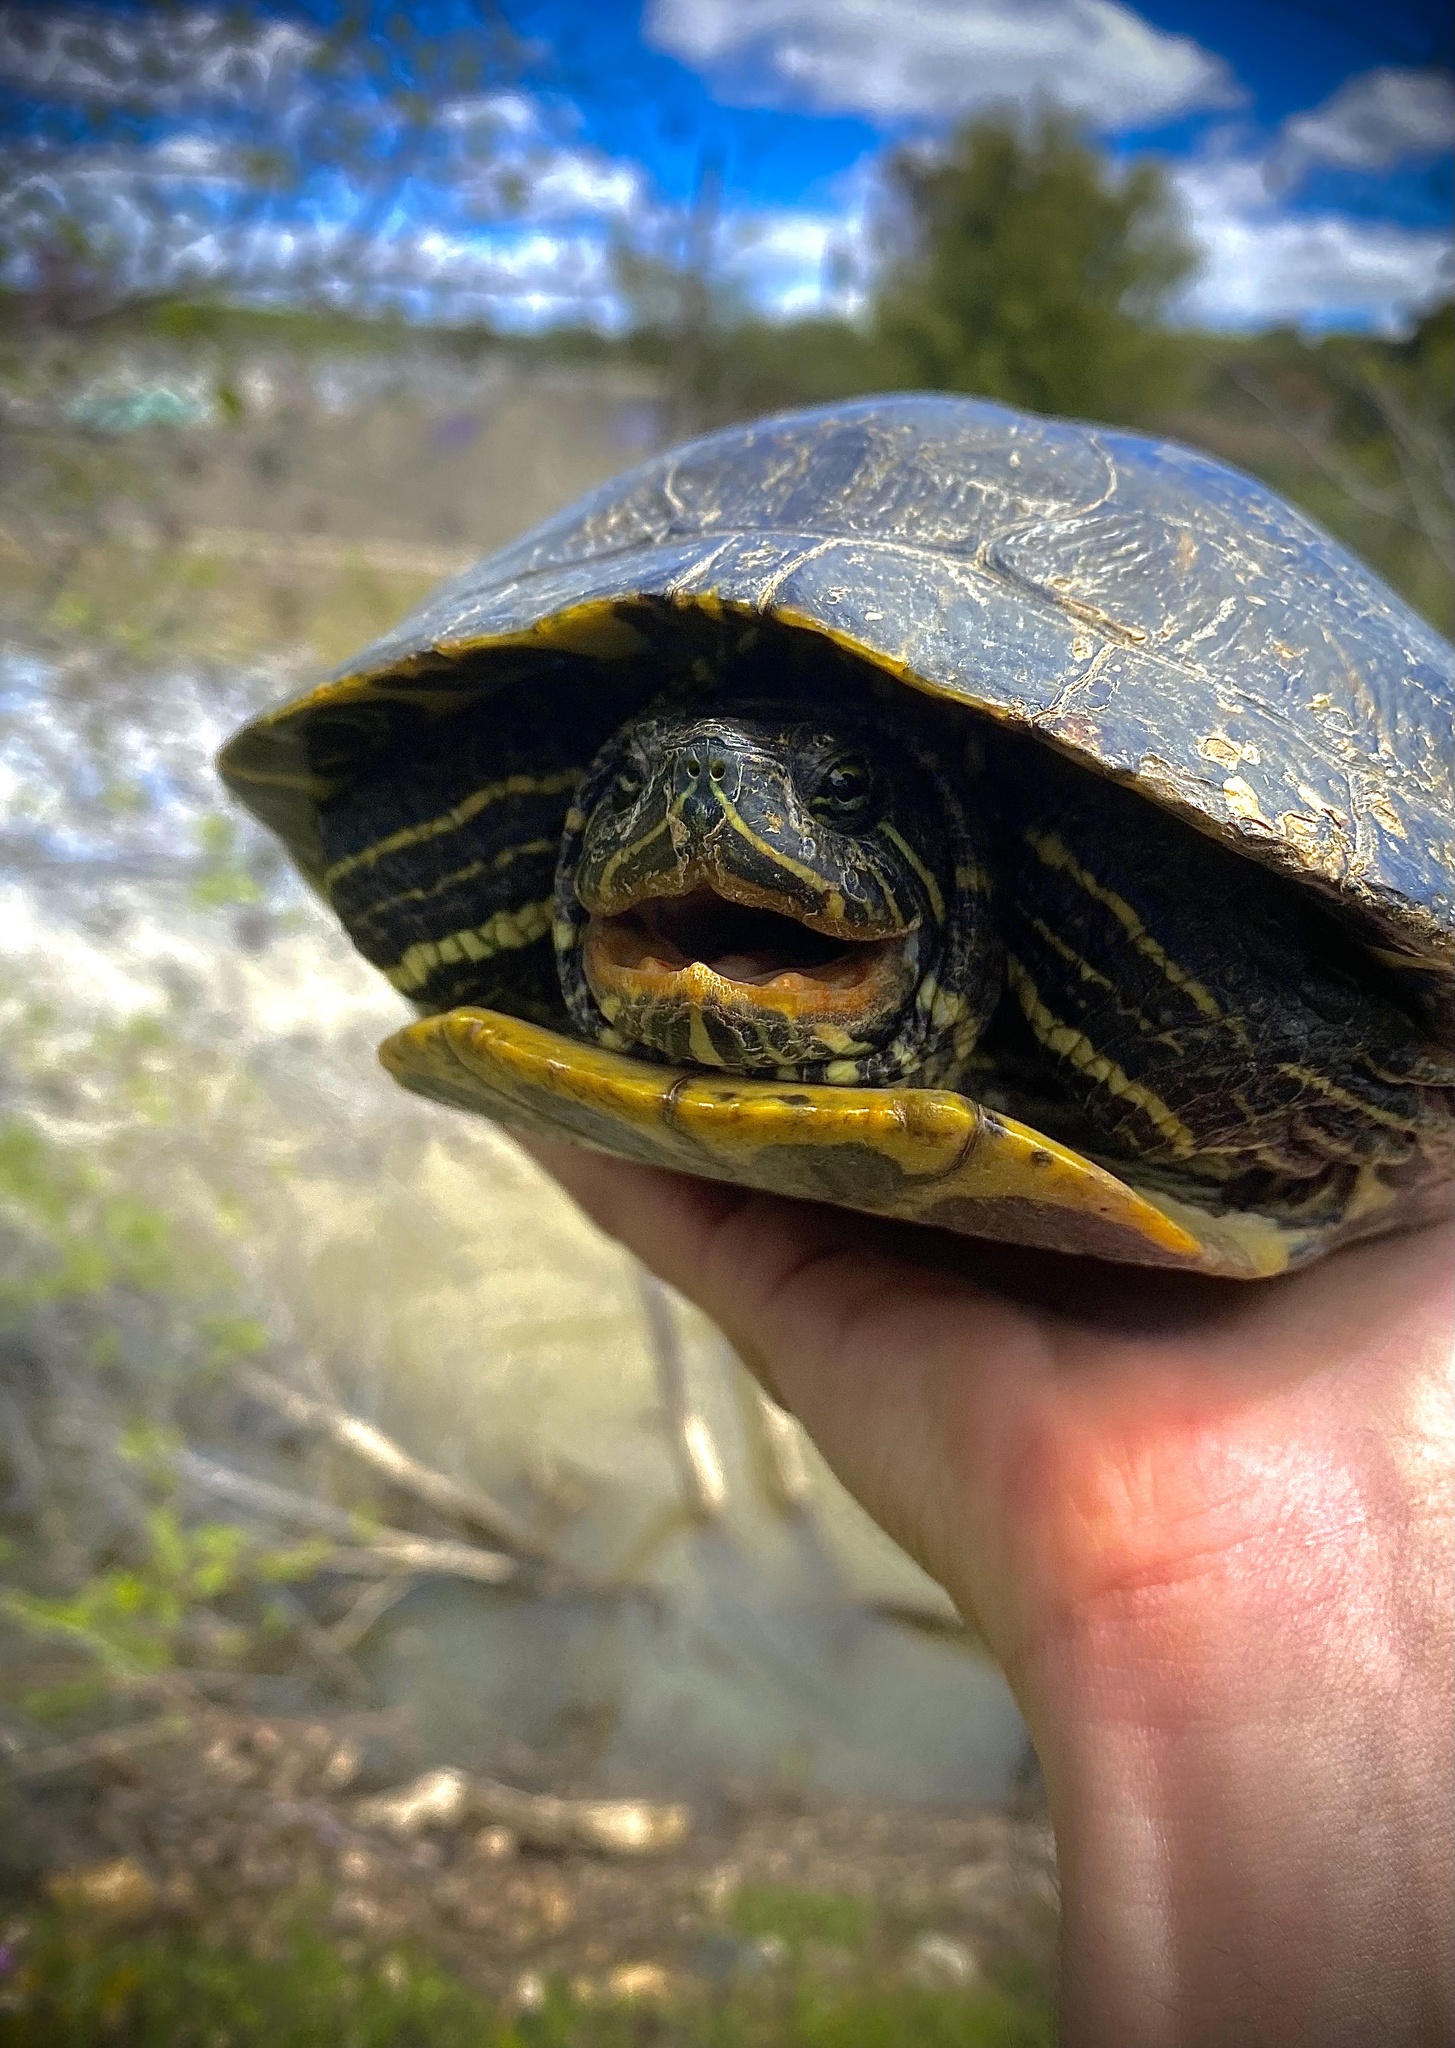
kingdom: Animalia
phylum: Chordata
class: Testudines
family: Emydidae
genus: Trachemys
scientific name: Trachemys scripta
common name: Slider
